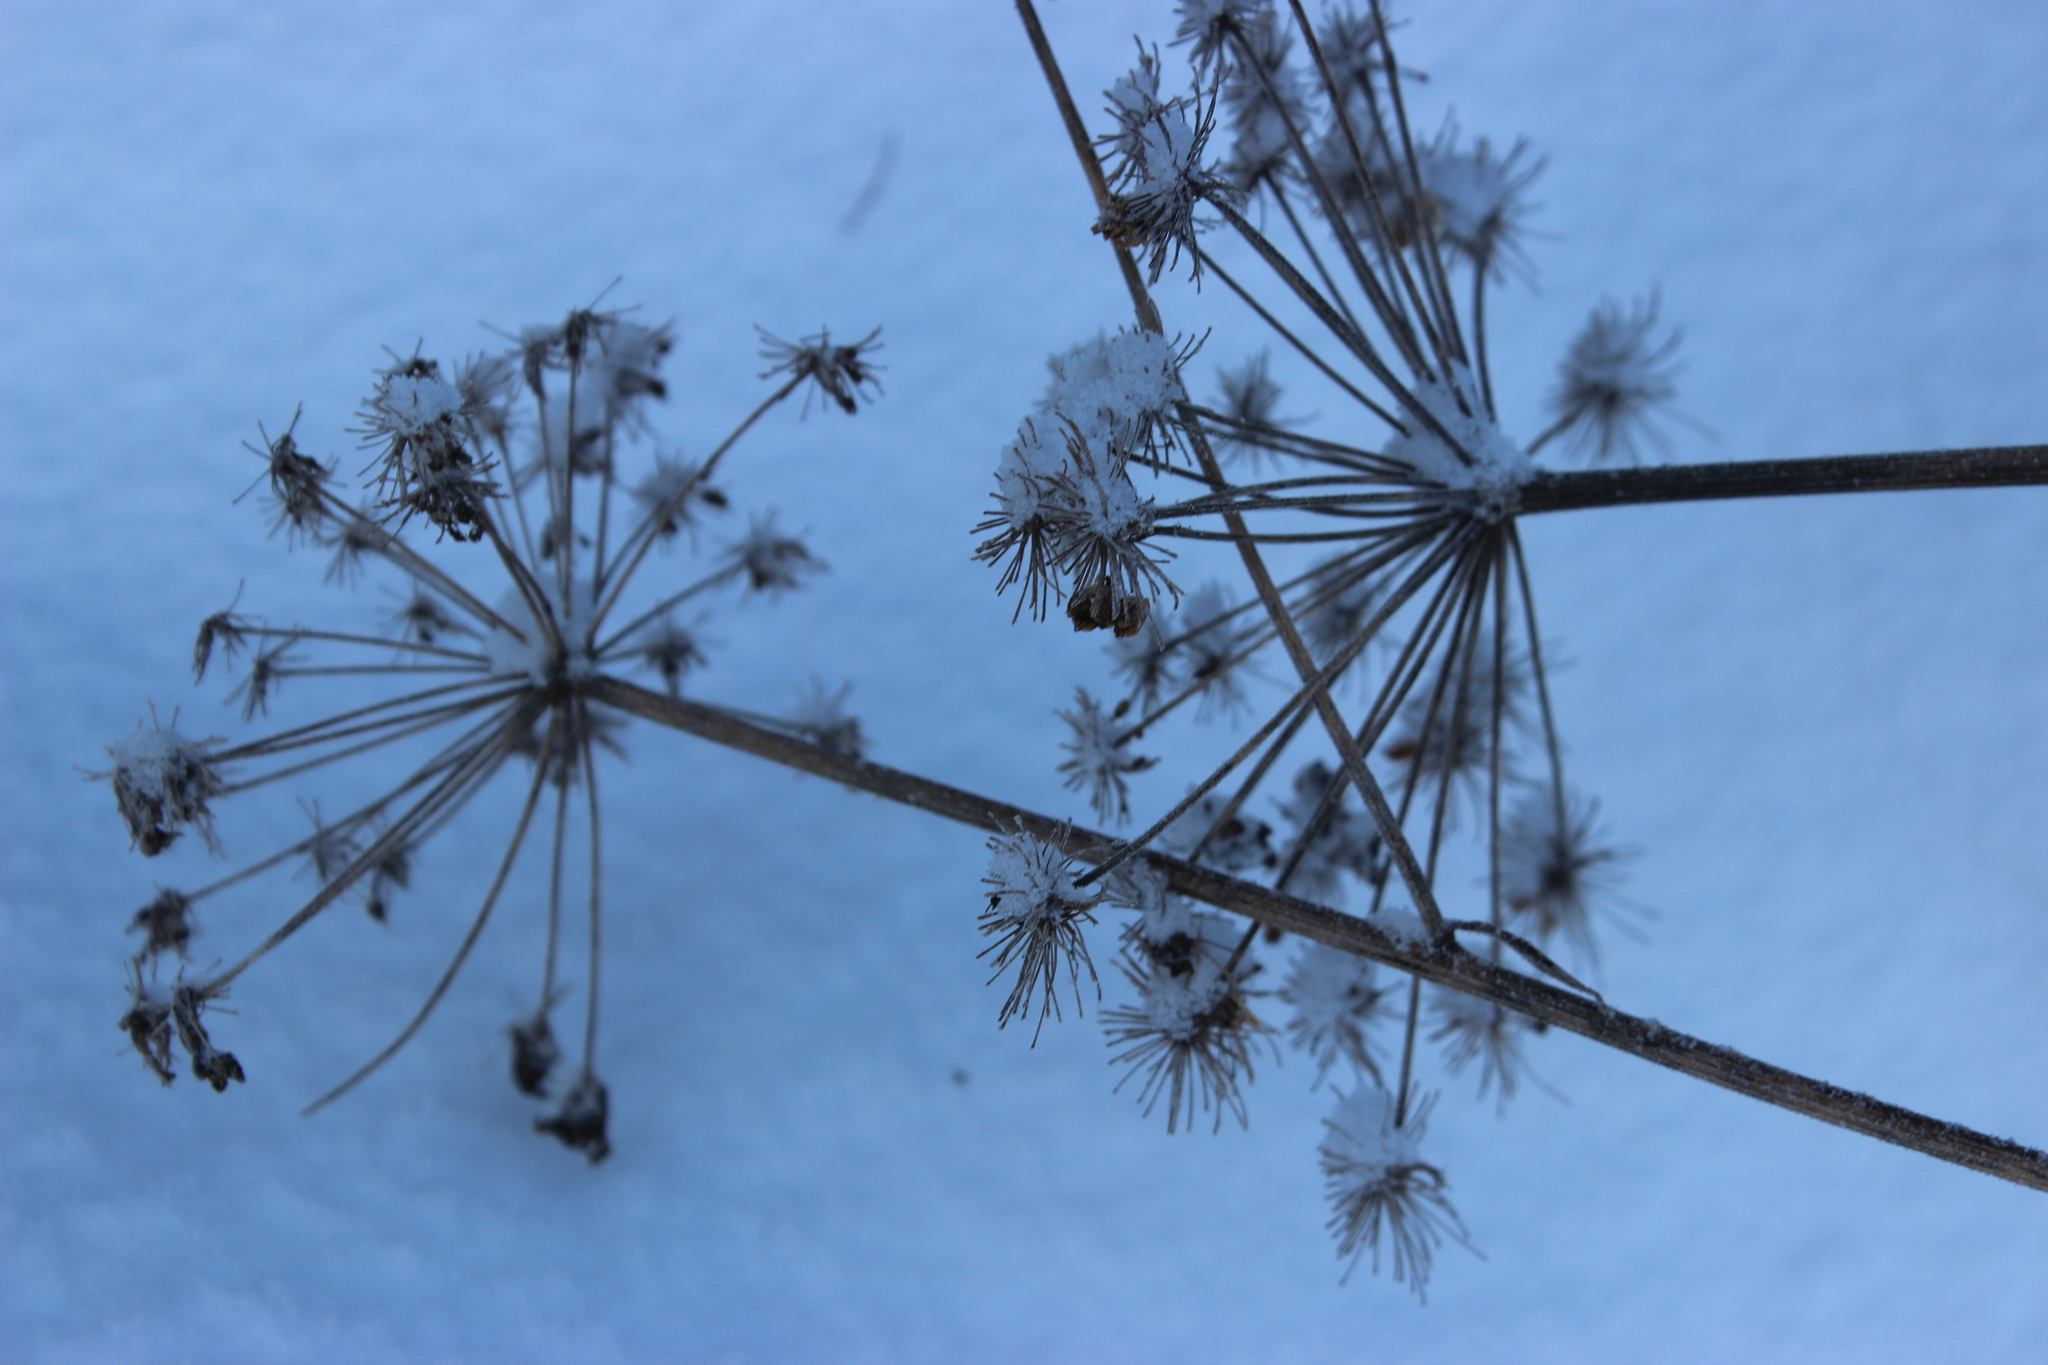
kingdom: Plantae
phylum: Tracheophyta
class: Magnoliopsida
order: Apiales
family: Apiaceae
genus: Angelica
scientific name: Angelica sylvestris
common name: Wild angelica
